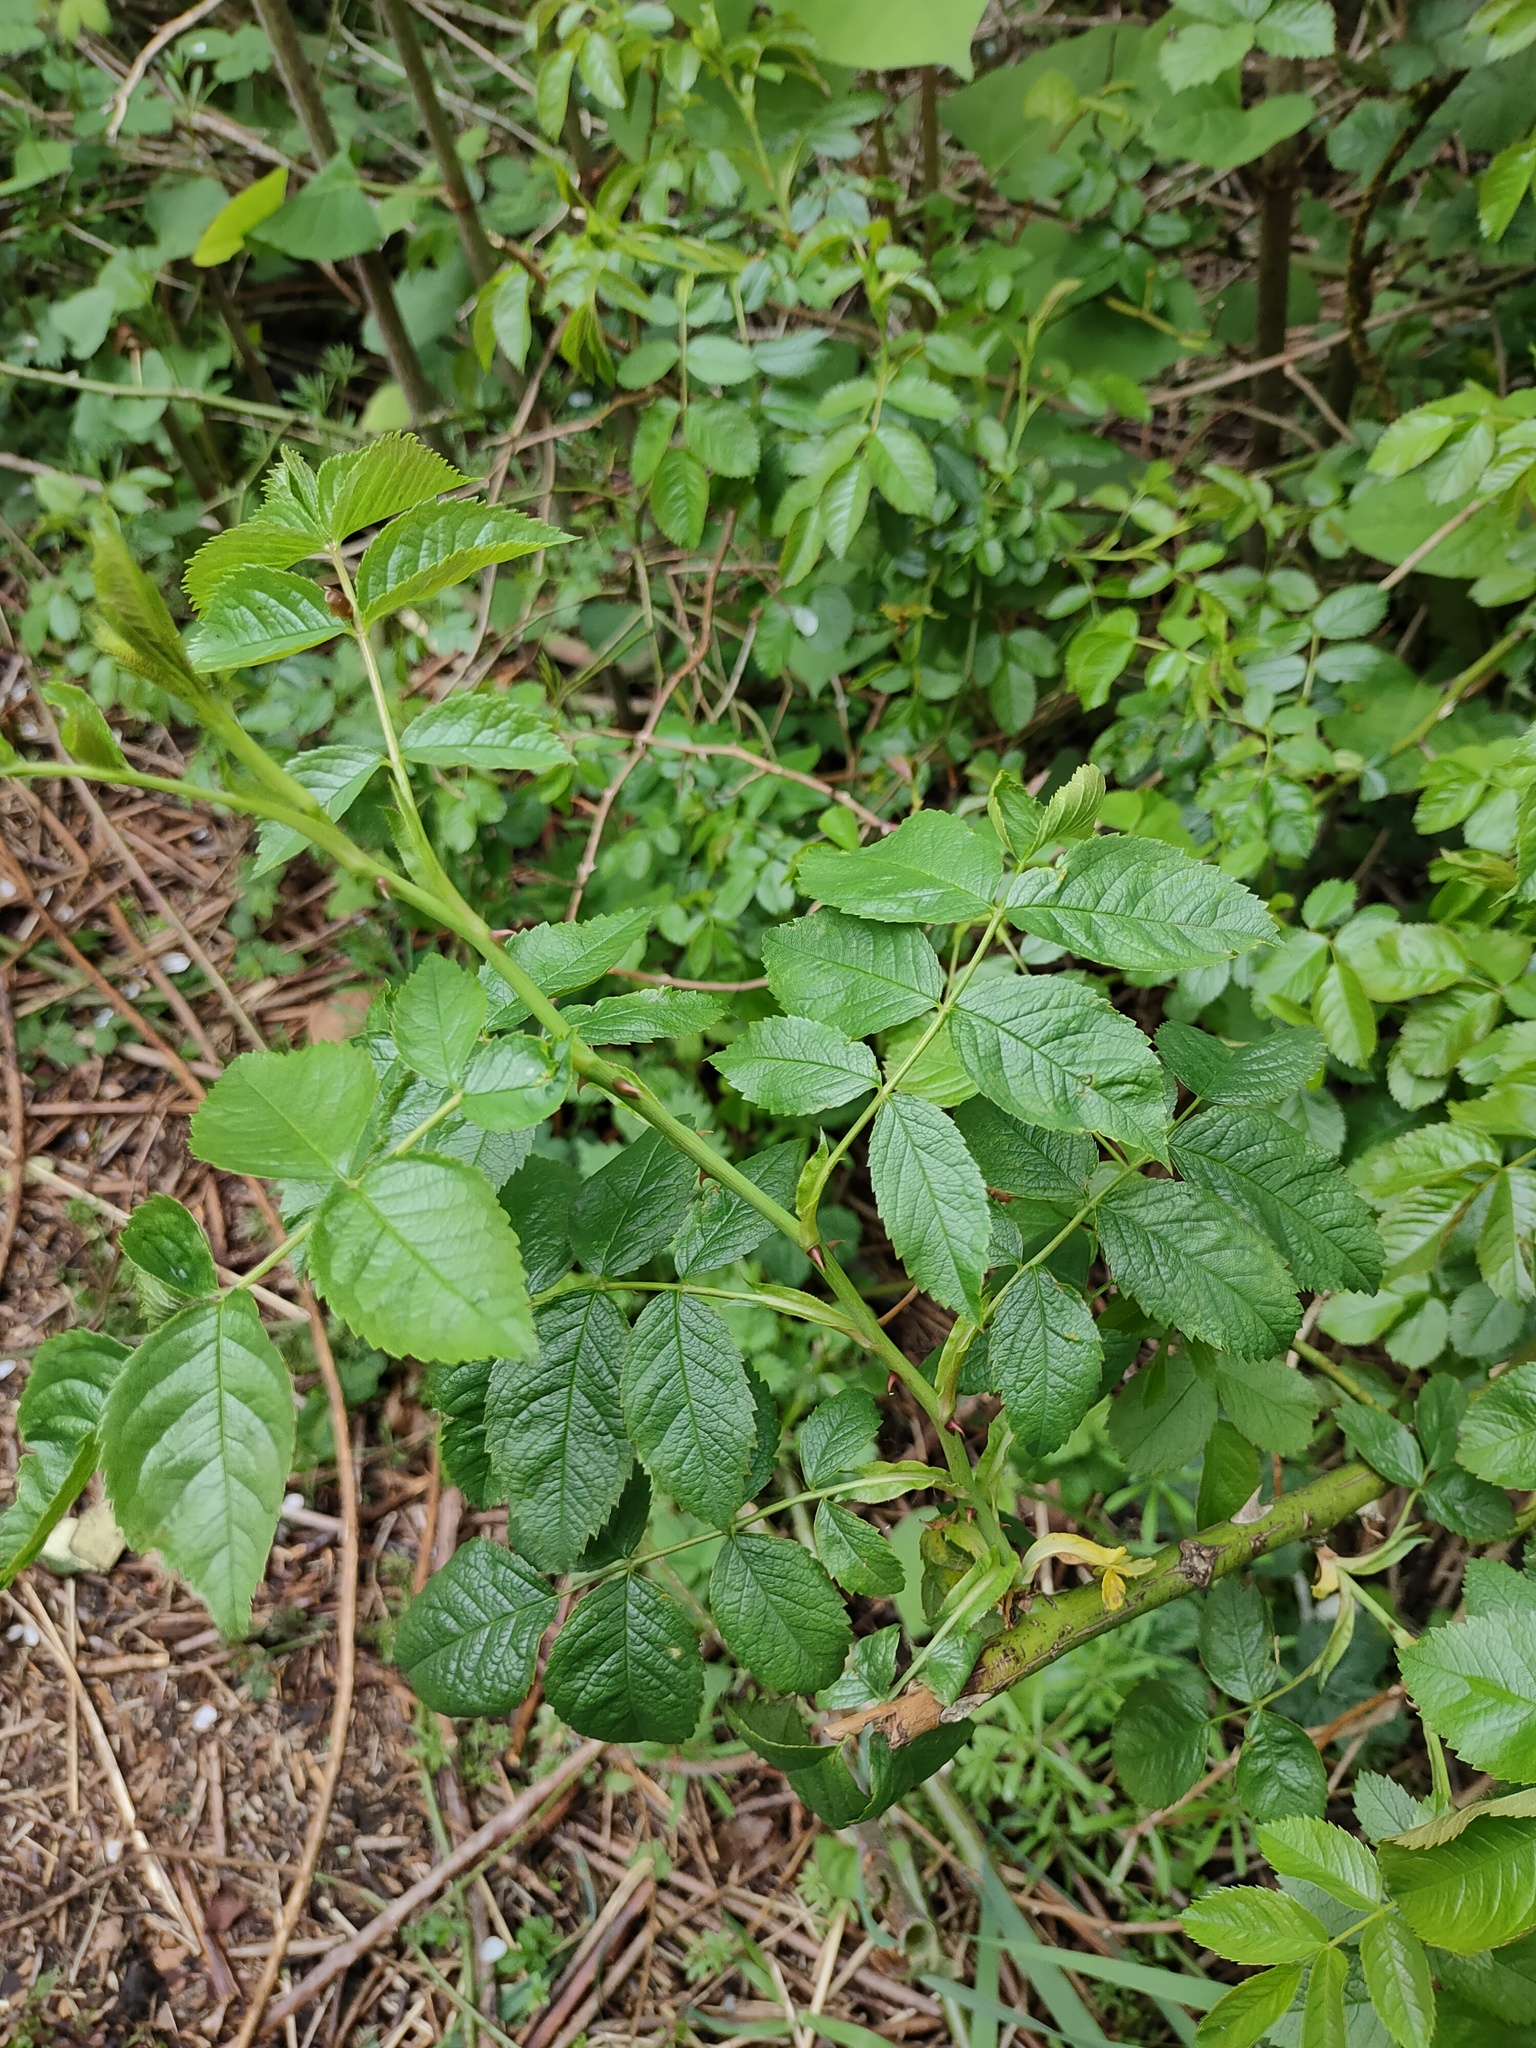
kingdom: Plantae
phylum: Tracheophyta
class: Magnoliopsida
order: Rosales
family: Rosaceae
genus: Rosa
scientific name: Rosa canina
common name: Dog rose
